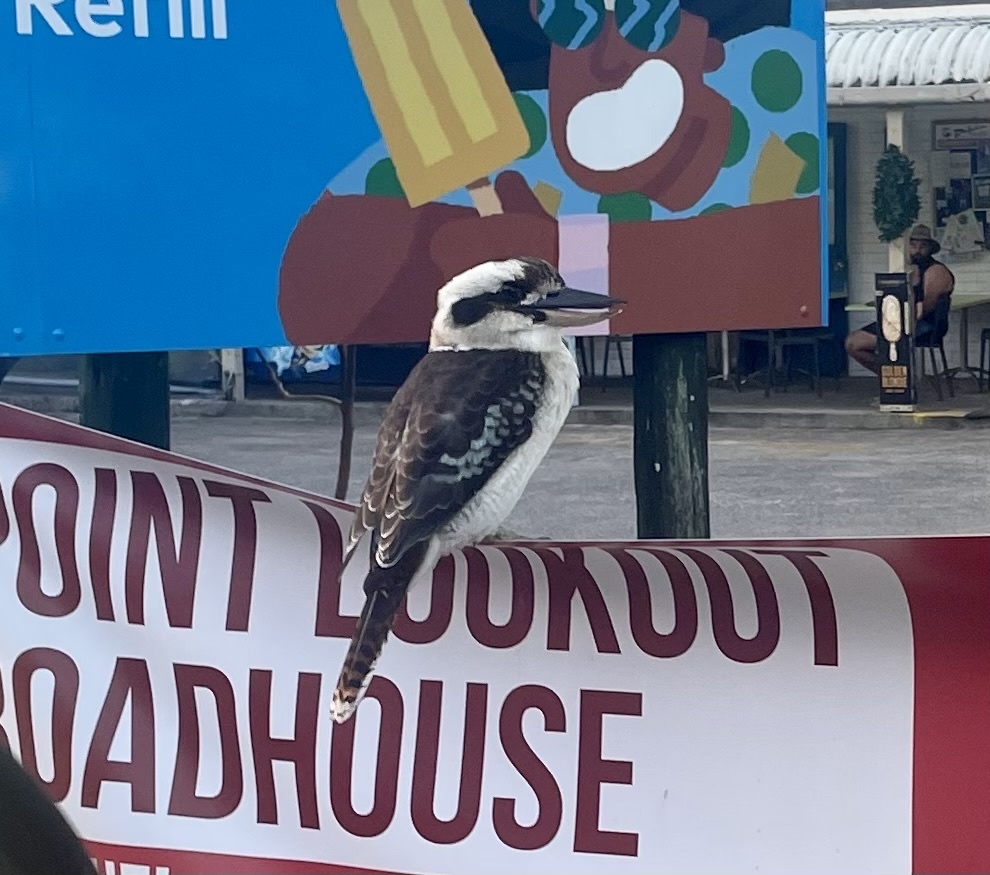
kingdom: Animalia
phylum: Chordata
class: Aves
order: Coraciiformes
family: Alcedinidae
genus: Dacelo
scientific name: Dacelo novaeguineae
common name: Laughing kookaburra
